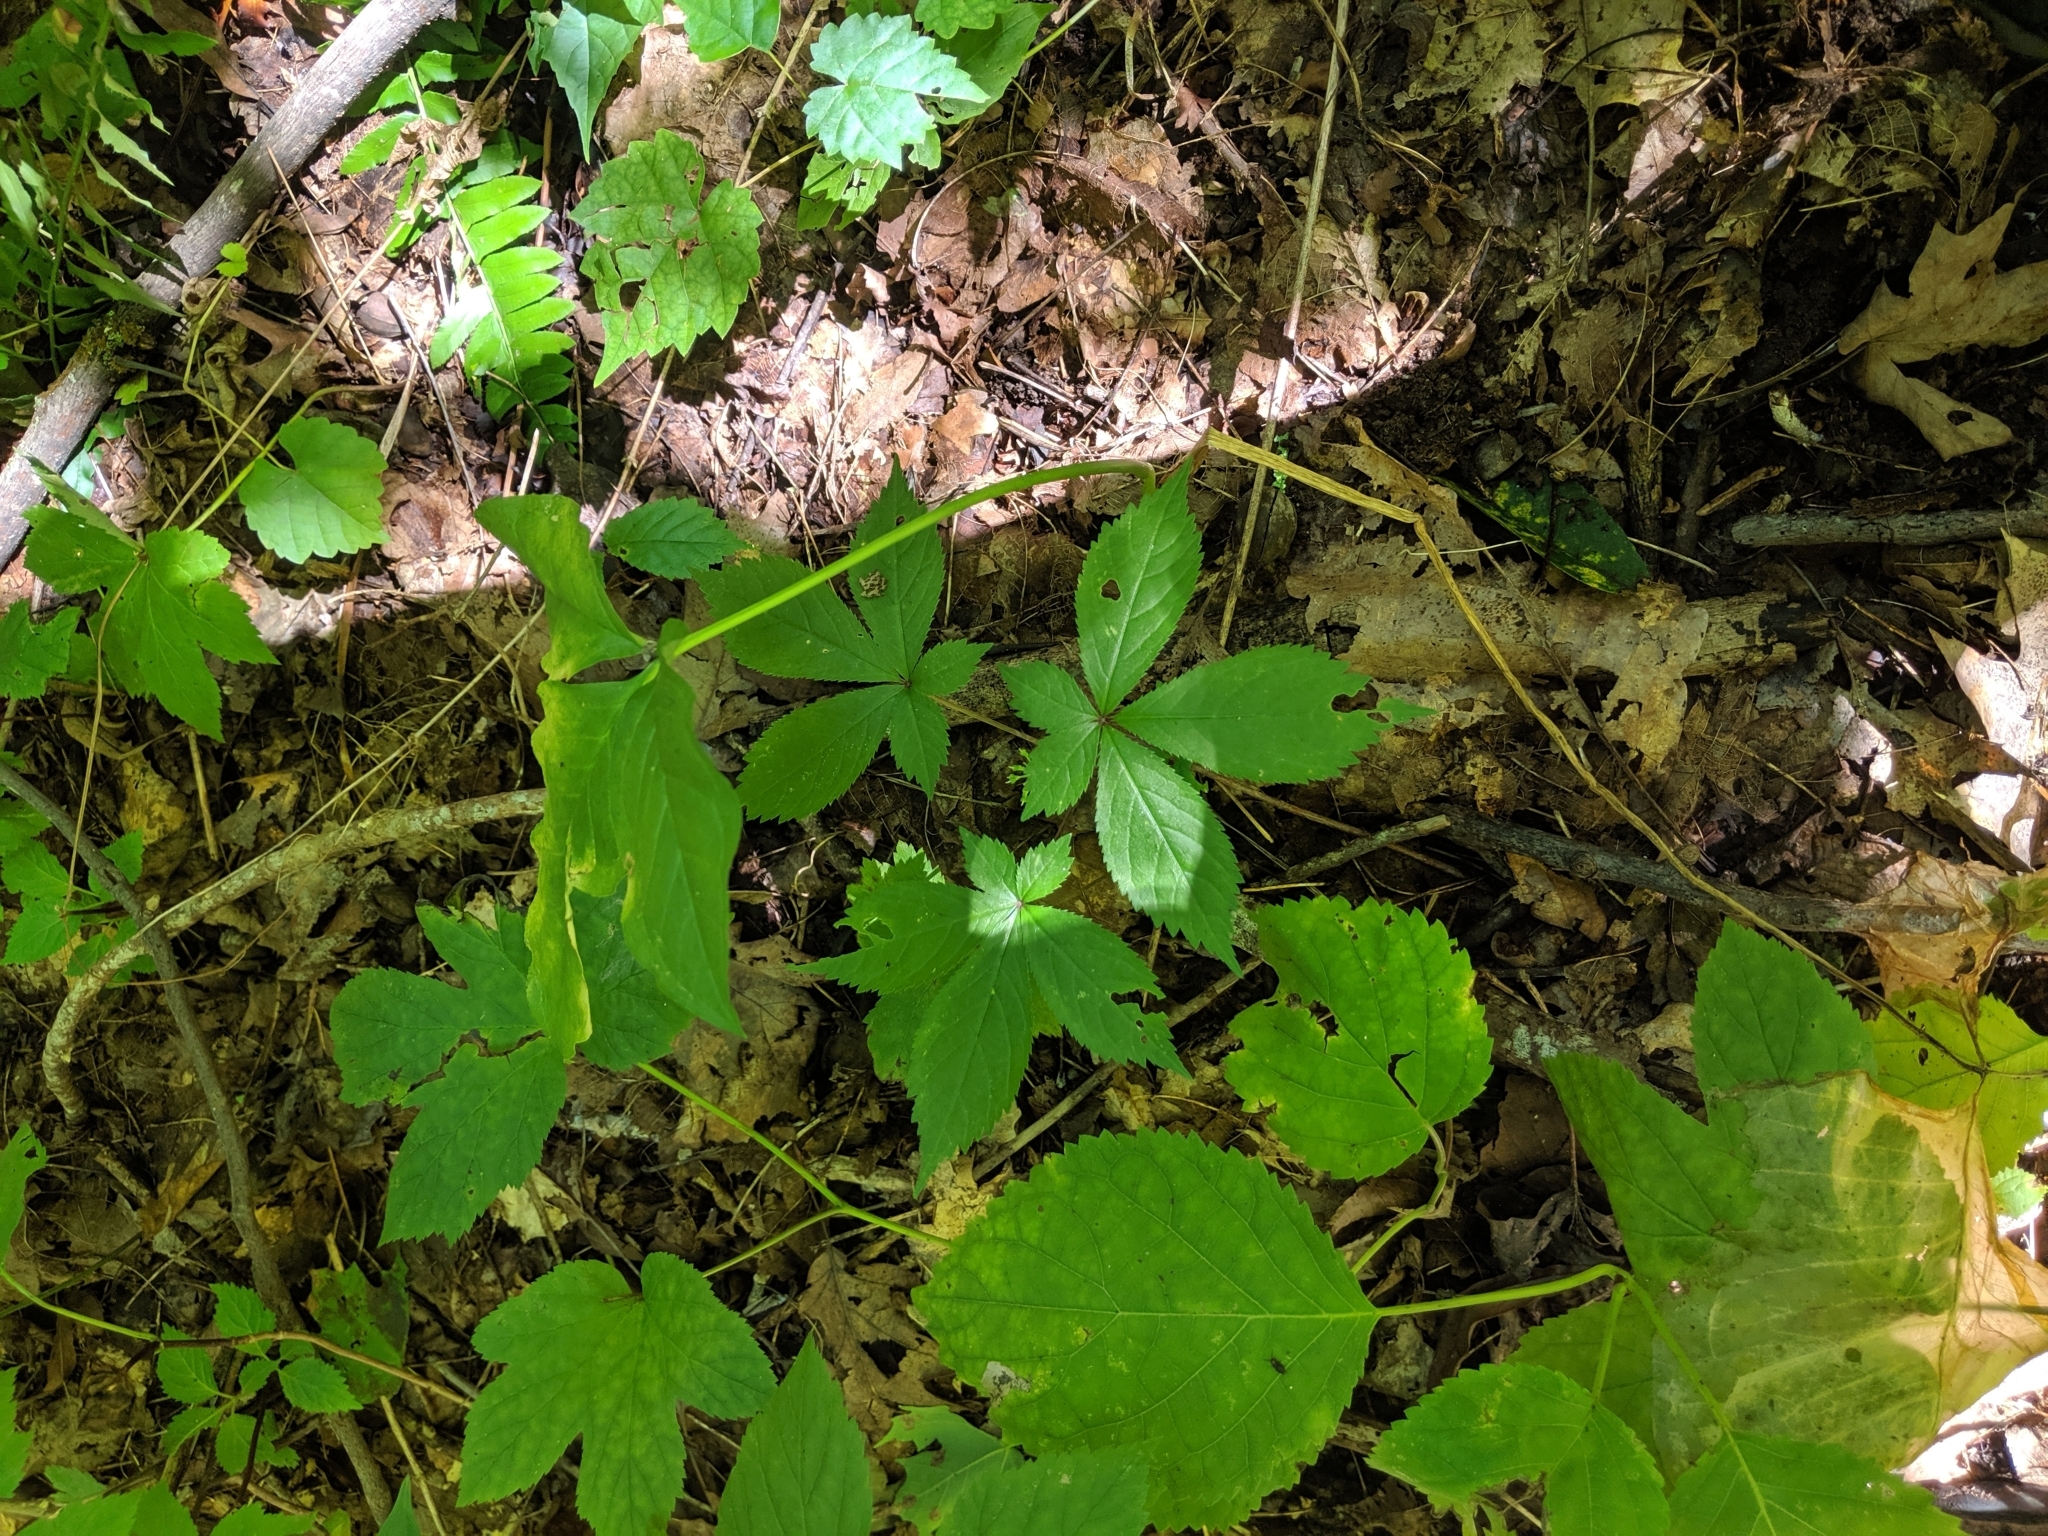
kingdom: Plantae
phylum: Tracheophyta
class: Magnoliopsida
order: Apiales
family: Araliaceae
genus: Panax
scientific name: Panax quinquefolius
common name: American ginseng
